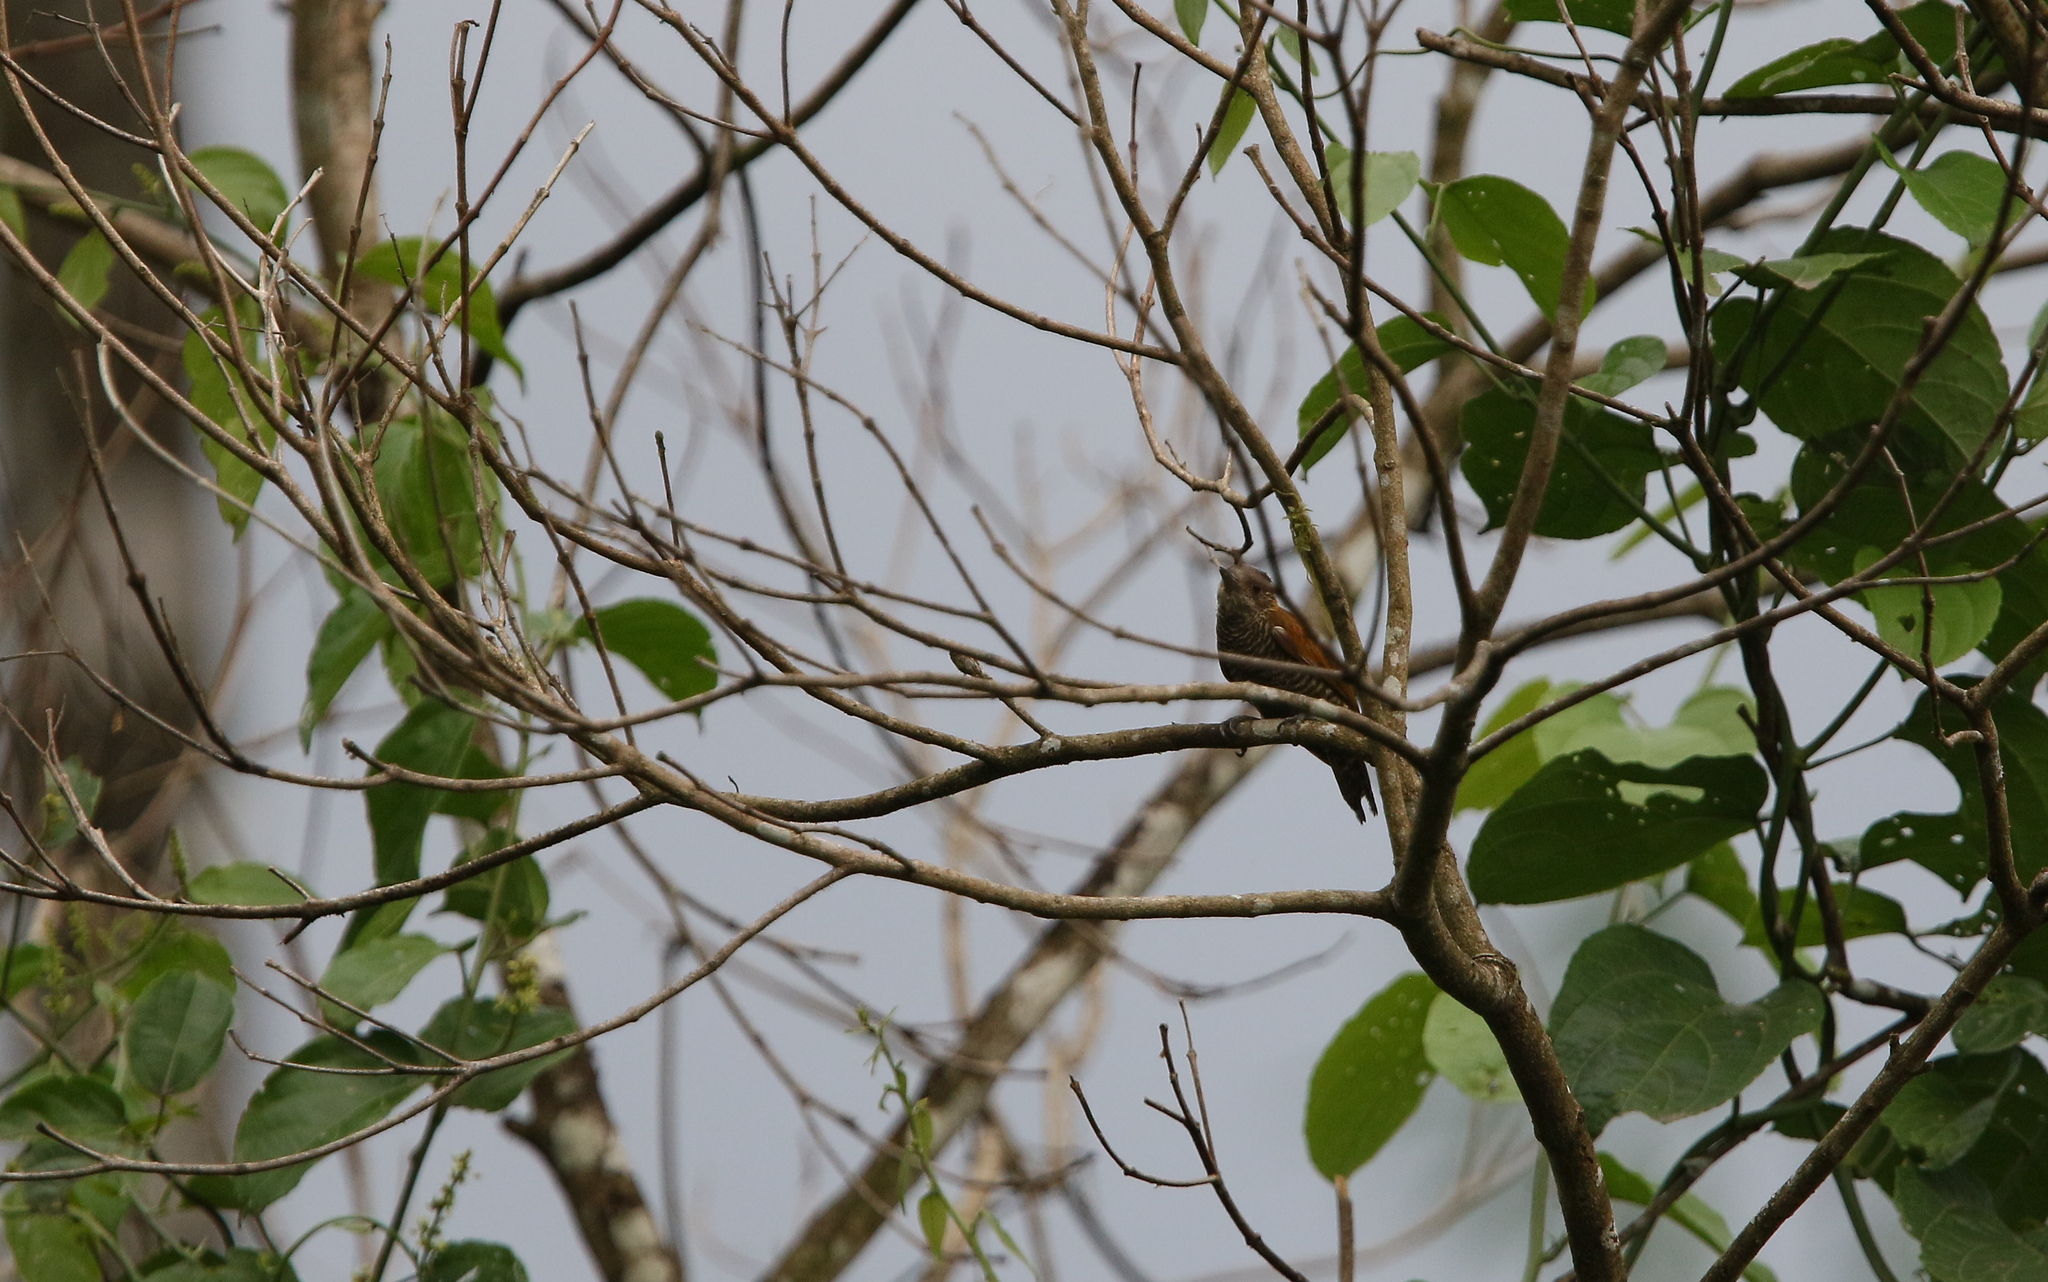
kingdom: Animalia
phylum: Chordata
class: Aves
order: Piciformes
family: Picidae
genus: Veniliornis
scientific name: Veniliornis kirkii
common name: Red-rumped woodpecker
